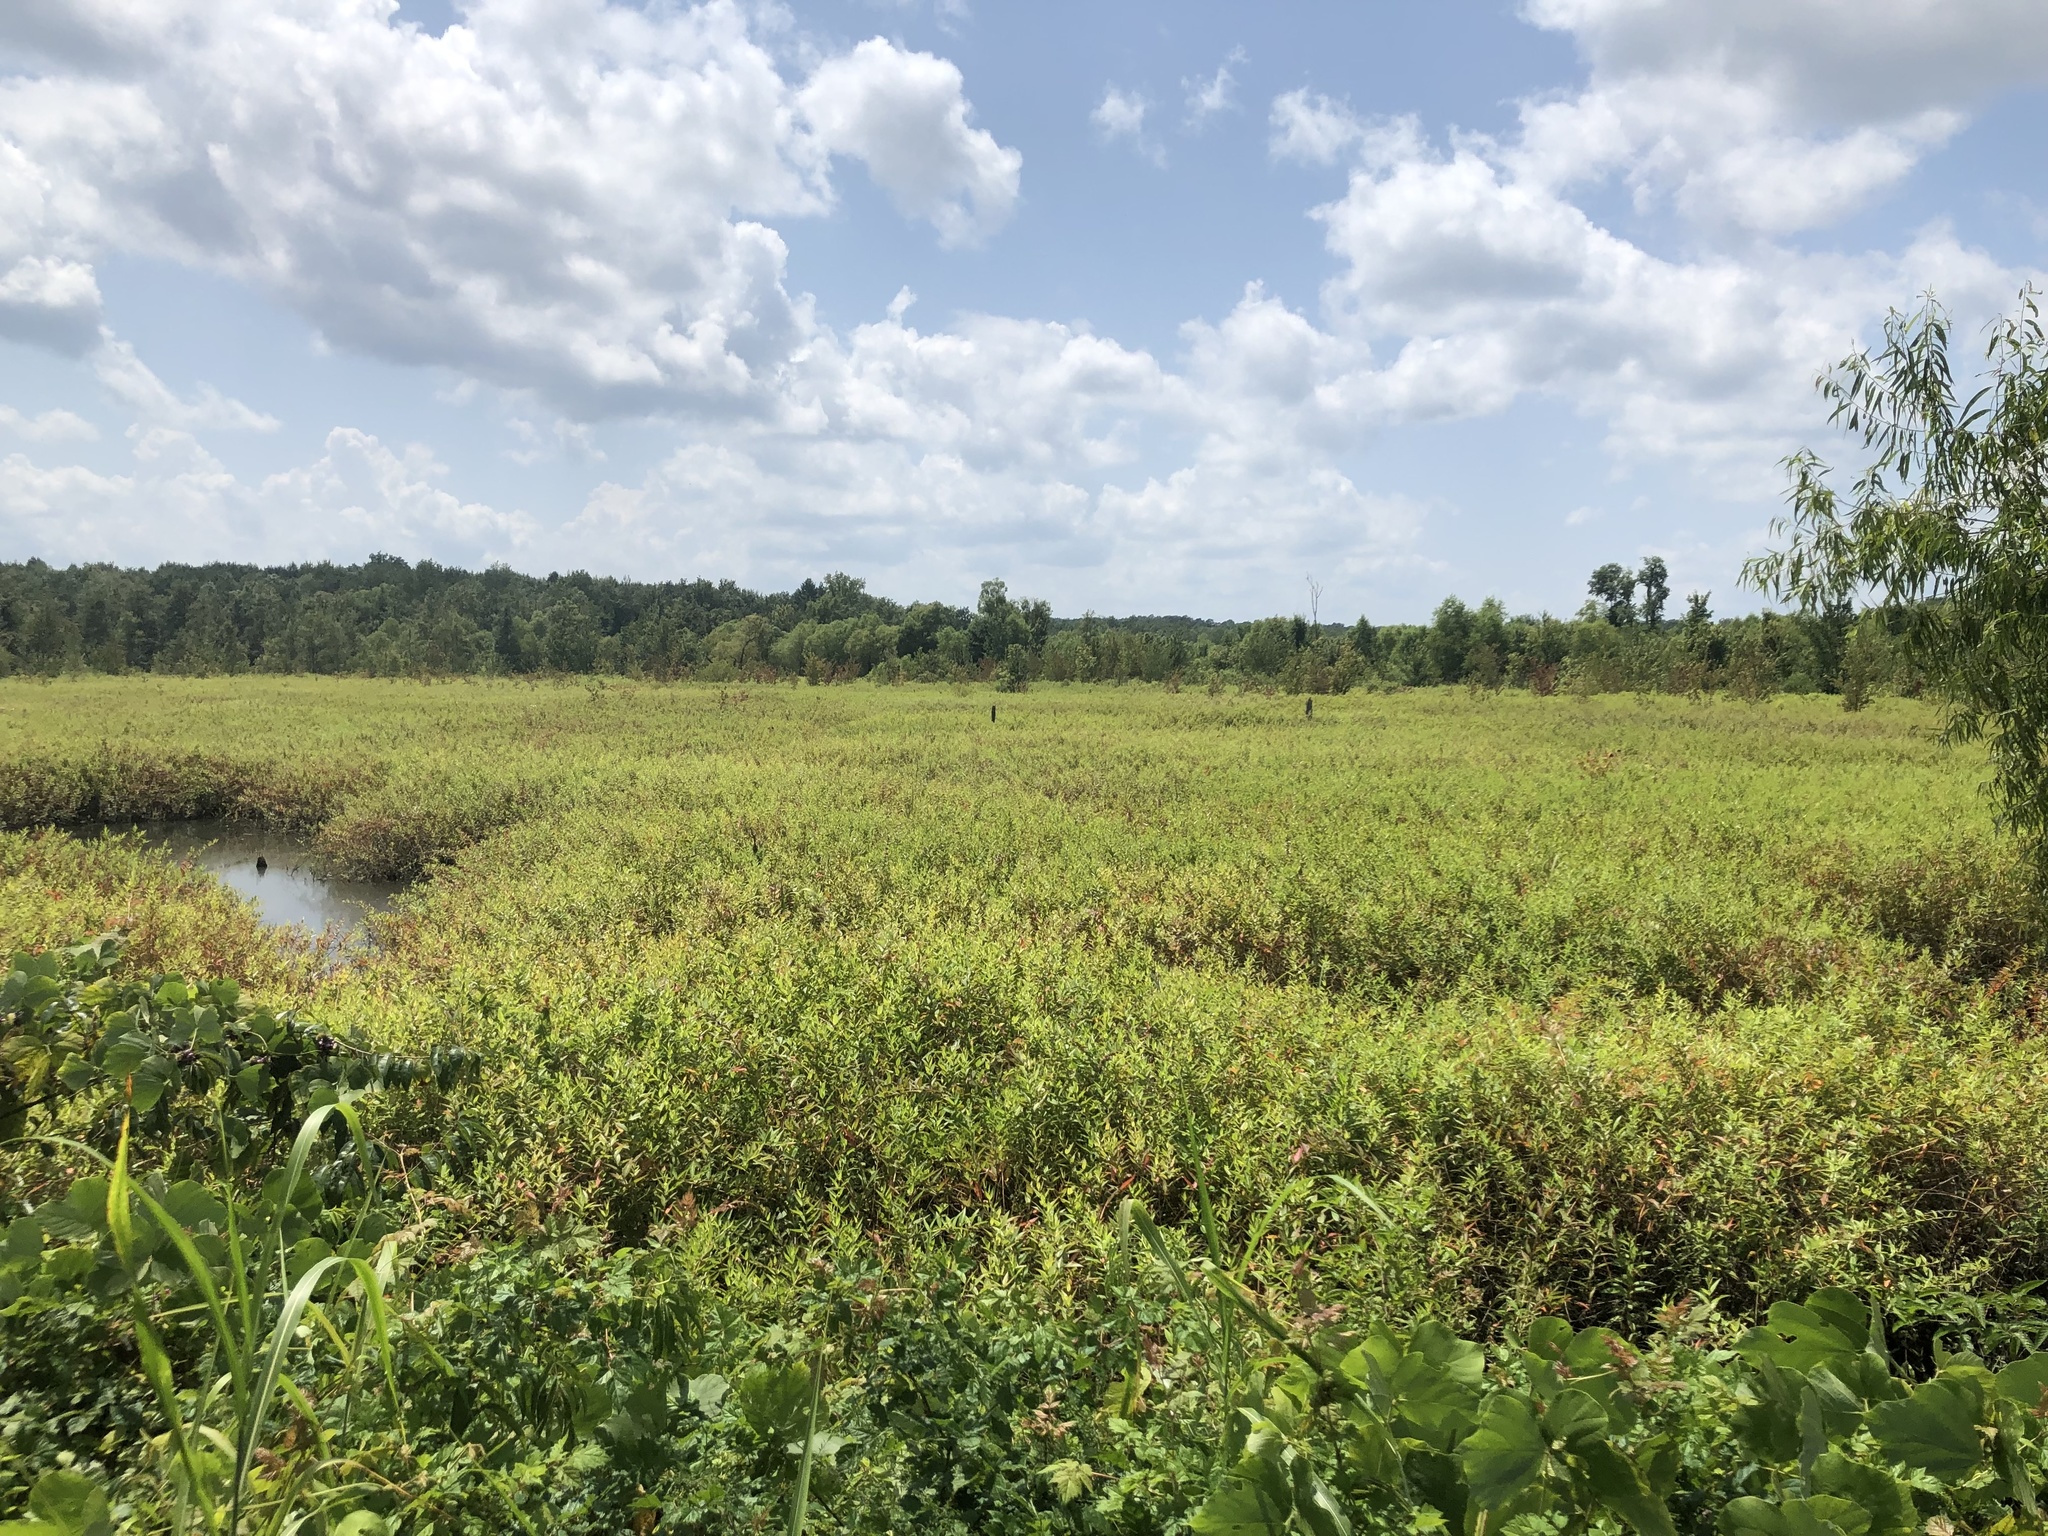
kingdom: Plantae
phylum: Tracheophyta
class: Magnoliopsida
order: Myrtales
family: Lythraceae
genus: Decodon
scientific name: Decodon verticillatus
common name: Hairy swamp loosestrife
